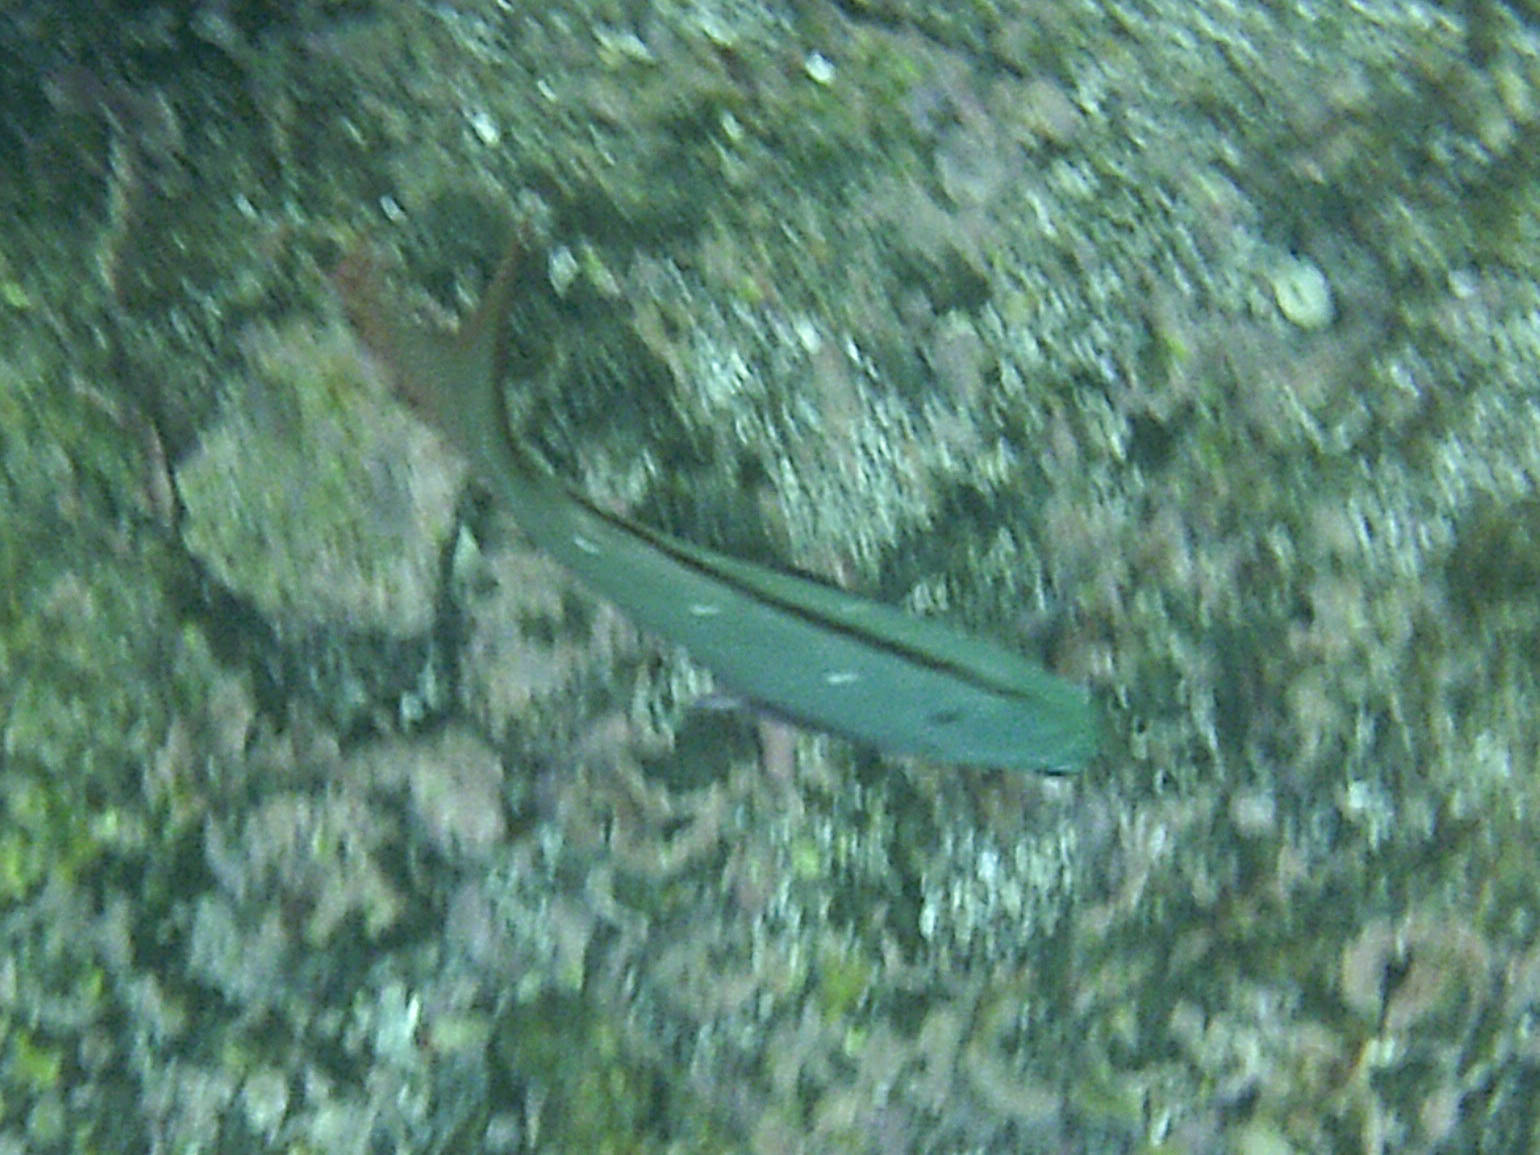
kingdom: Animalia
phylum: Chordata
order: Perciformes
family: Serranidae
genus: Paranthias
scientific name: Paranthias colonus
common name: Pacific creole-fish
